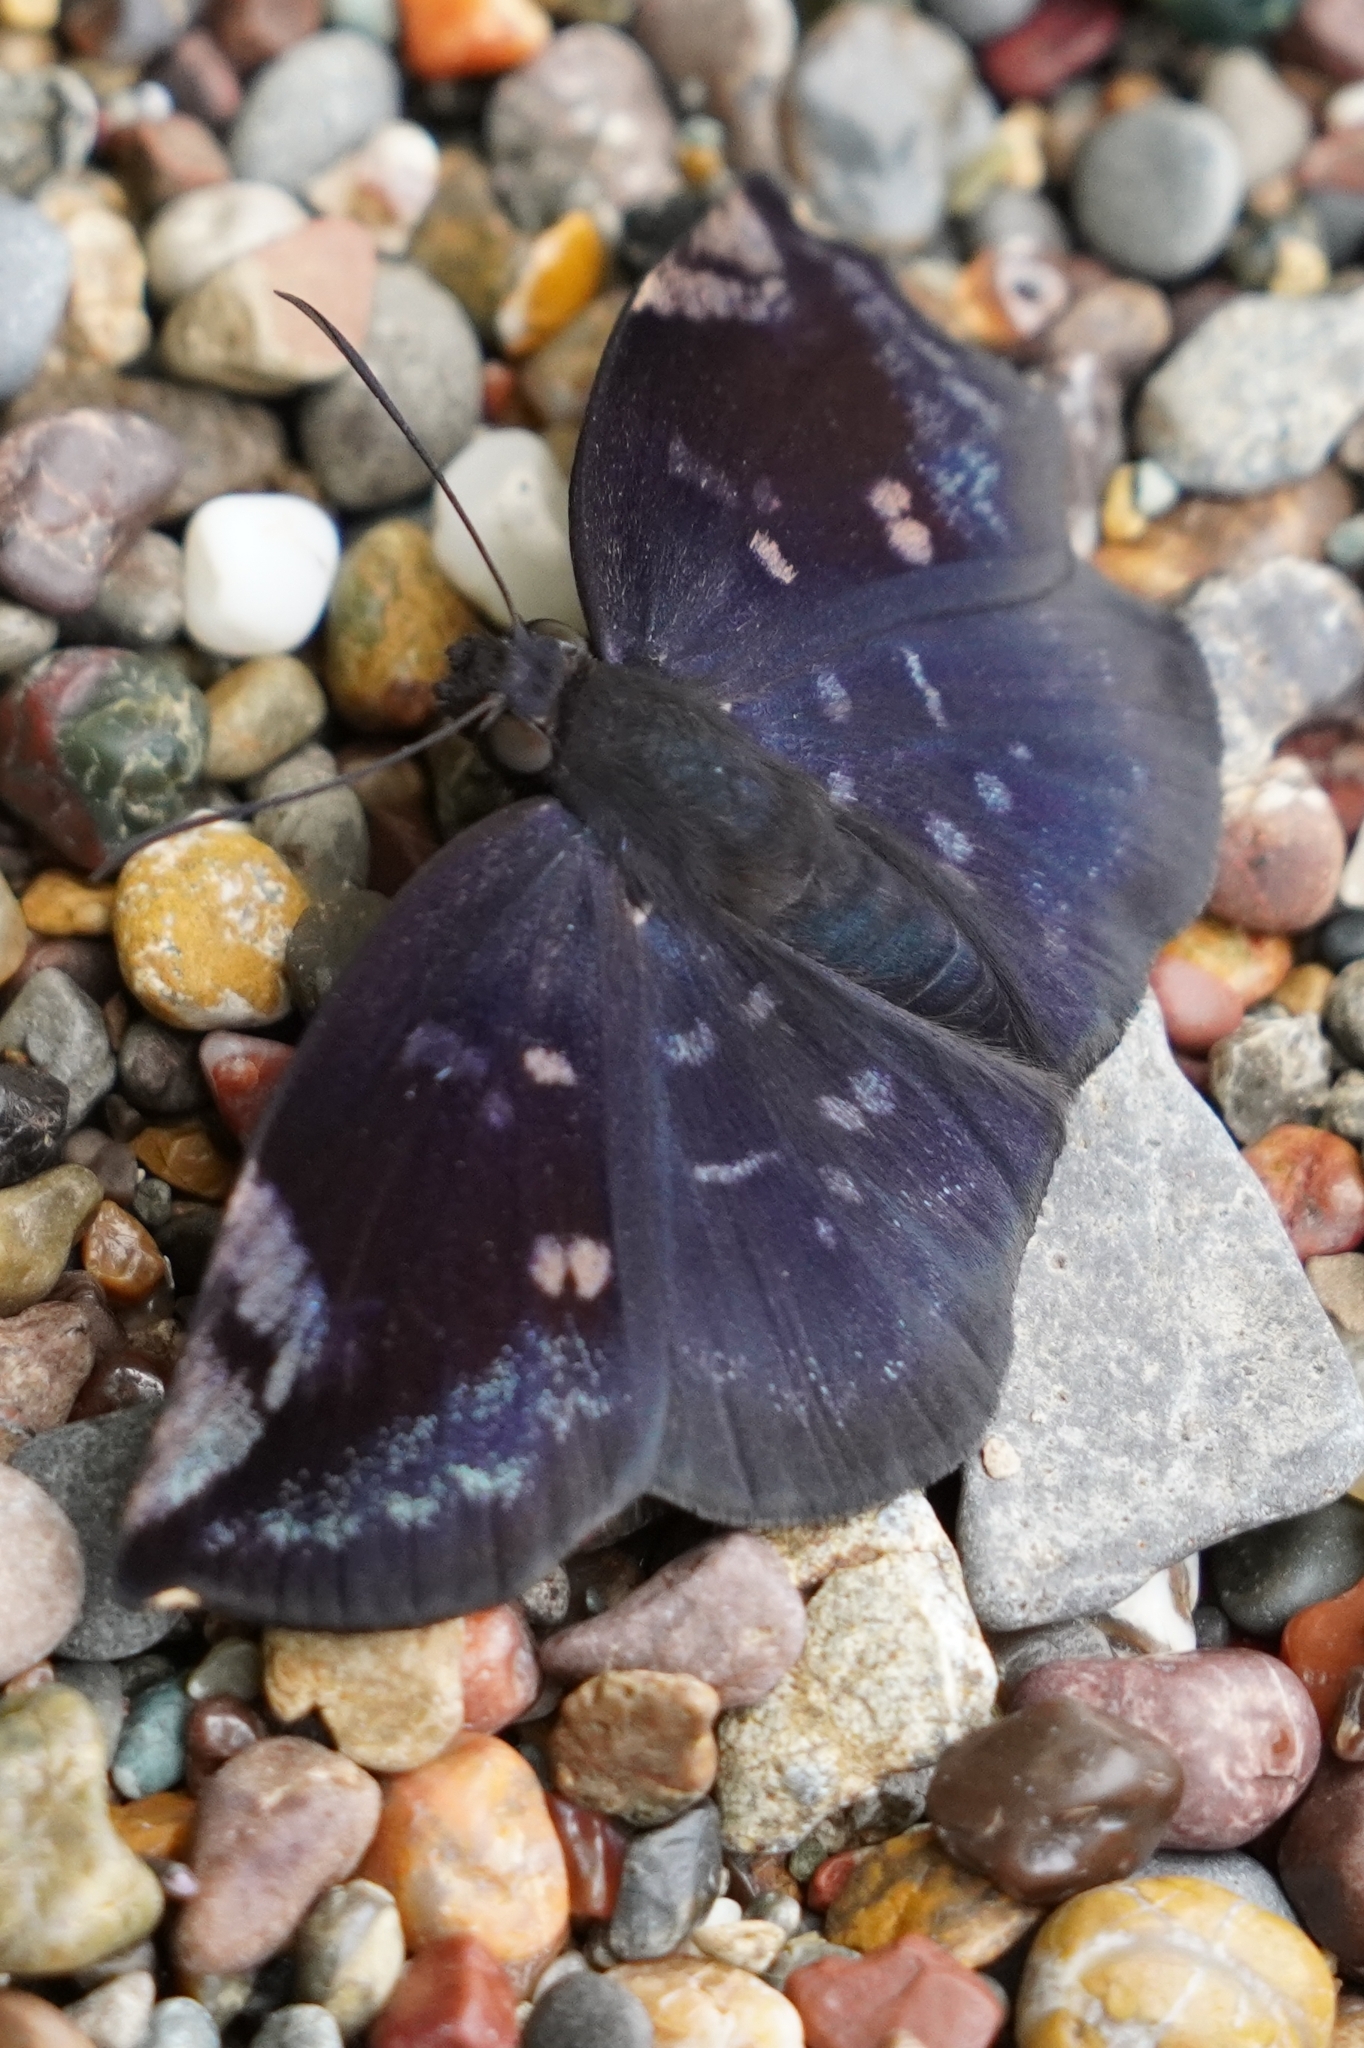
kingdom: Animalia
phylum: Arthropoda
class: Insecta
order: Lepidoptera
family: Hesperiidae
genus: Achlyodes
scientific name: Achlyodes thraso
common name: Sickle-winged skipper
